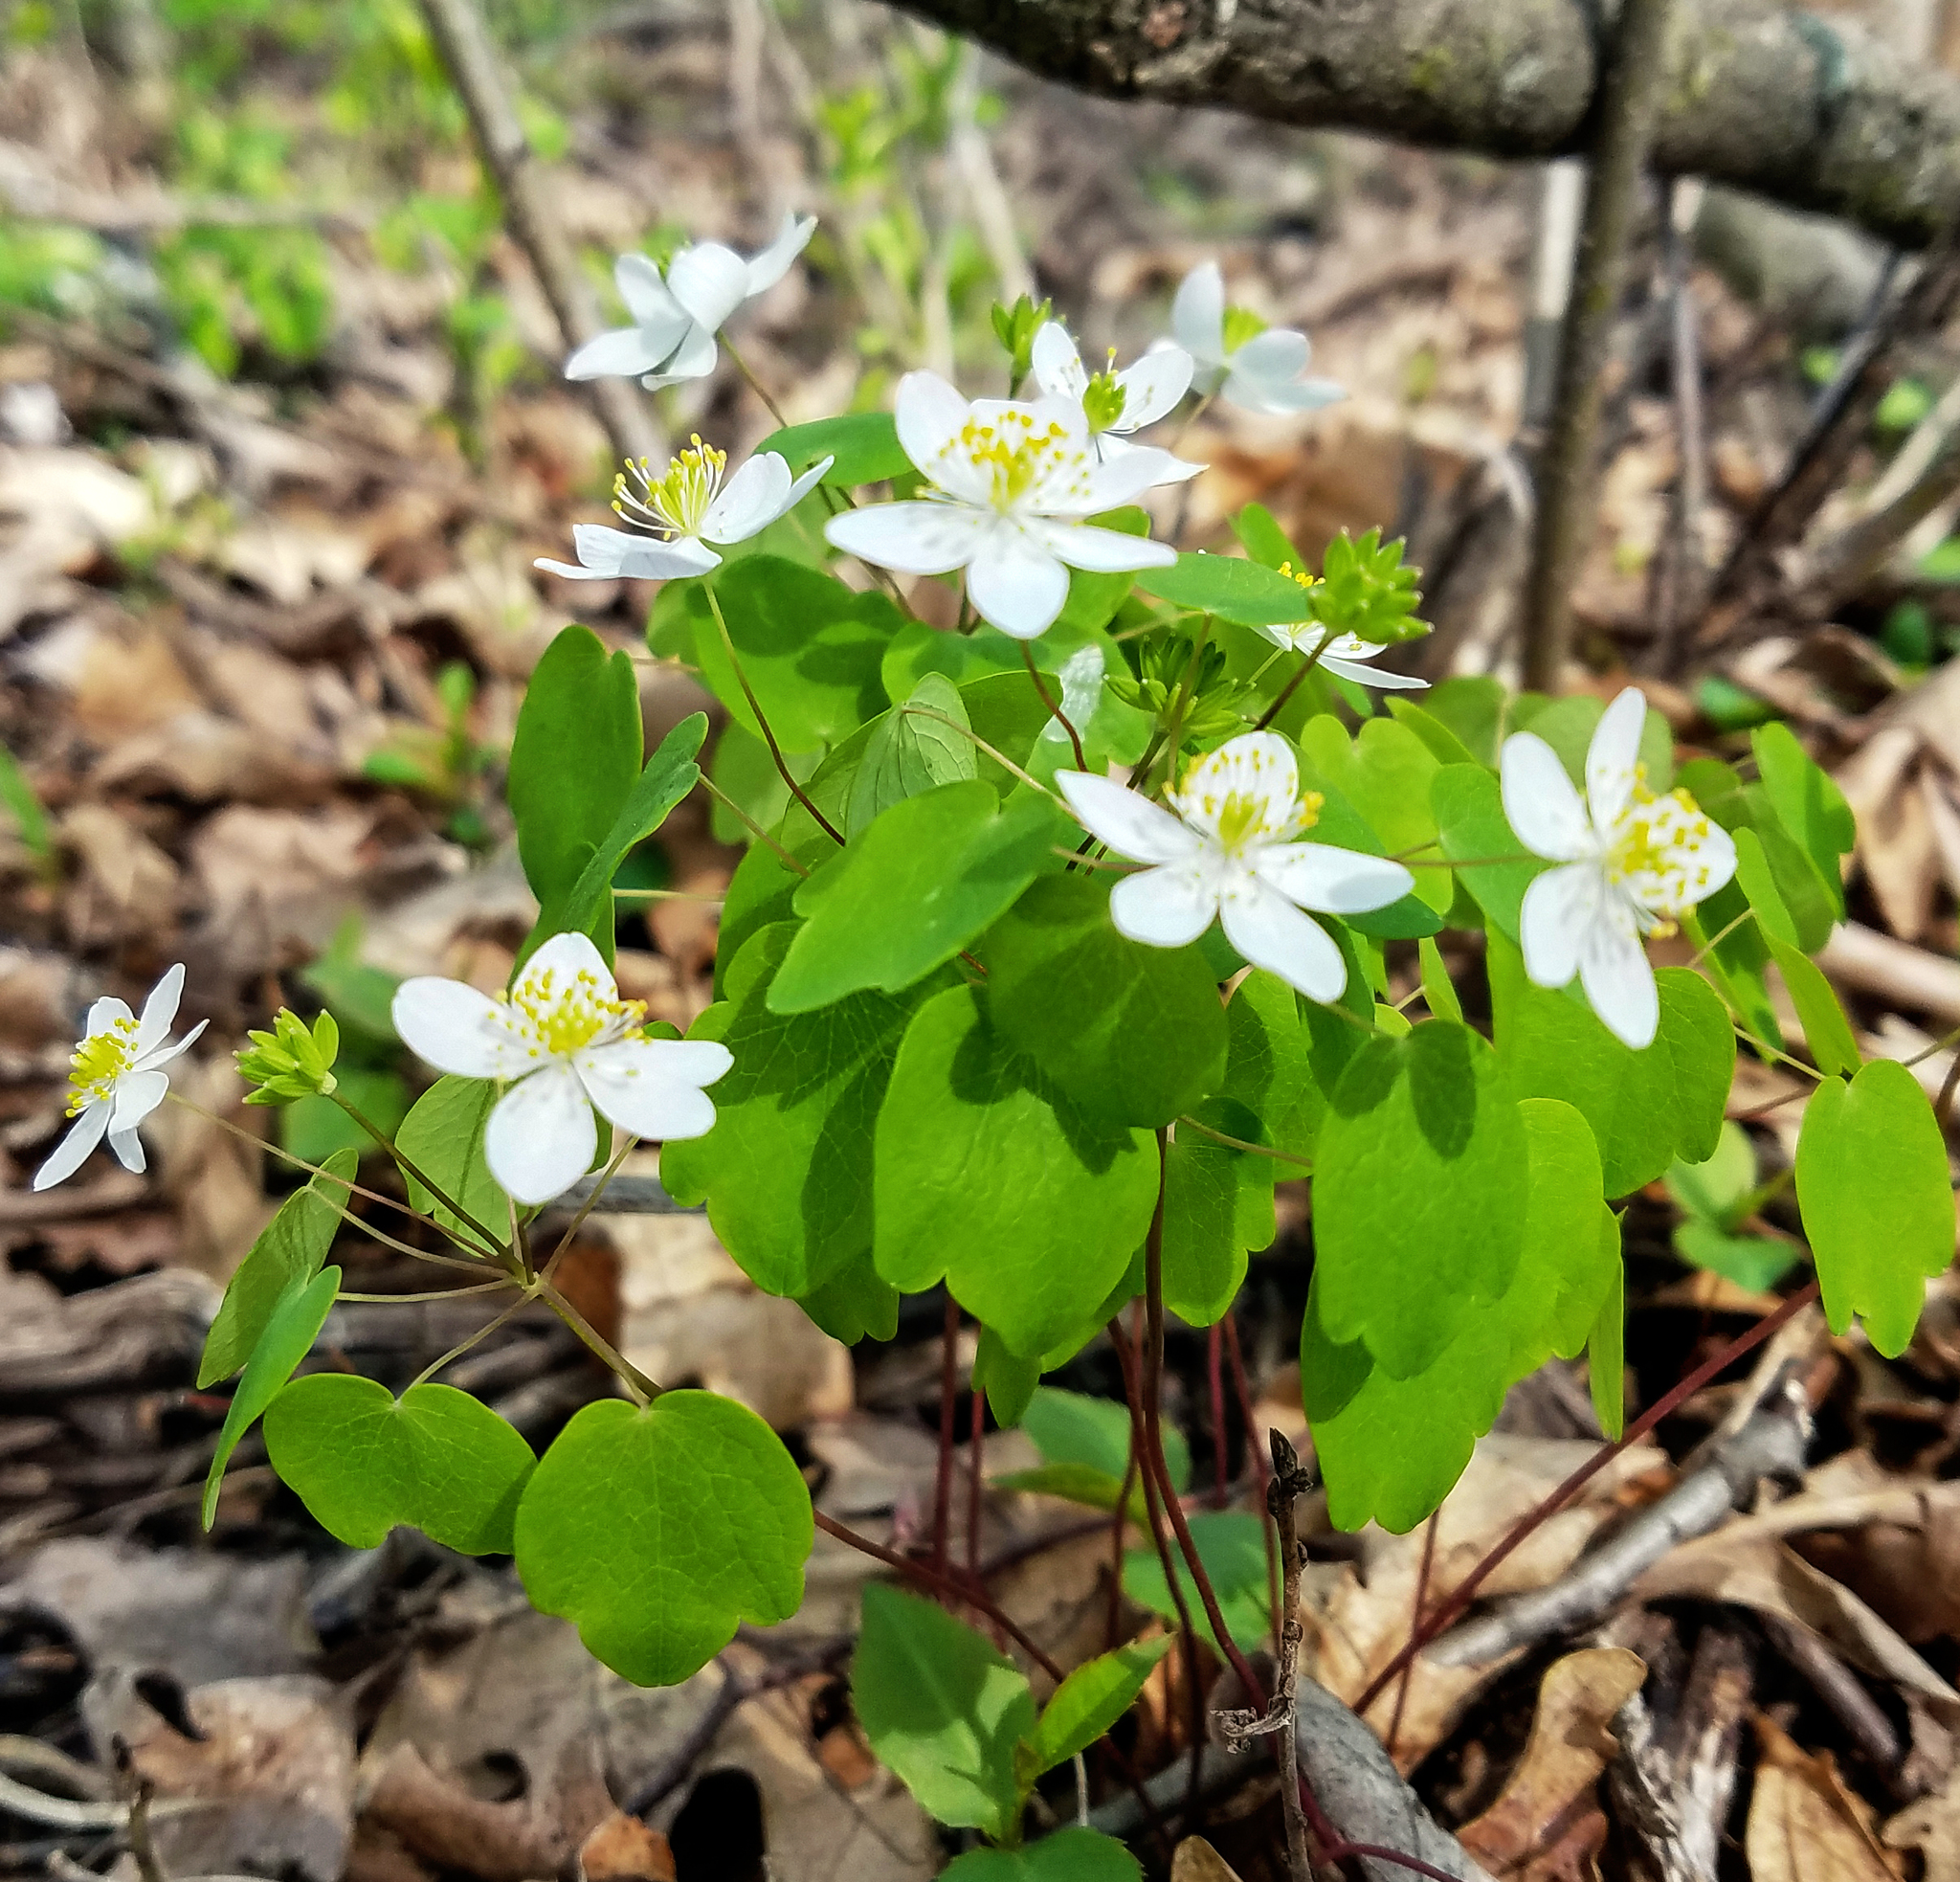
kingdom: Plantae
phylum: Tracheophyta
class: Magnoliopsida
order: Ranunculales
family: Ranunculaceae
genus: Thalictrum
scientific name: Thalictrum thalictroides
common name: Rue-anemone
